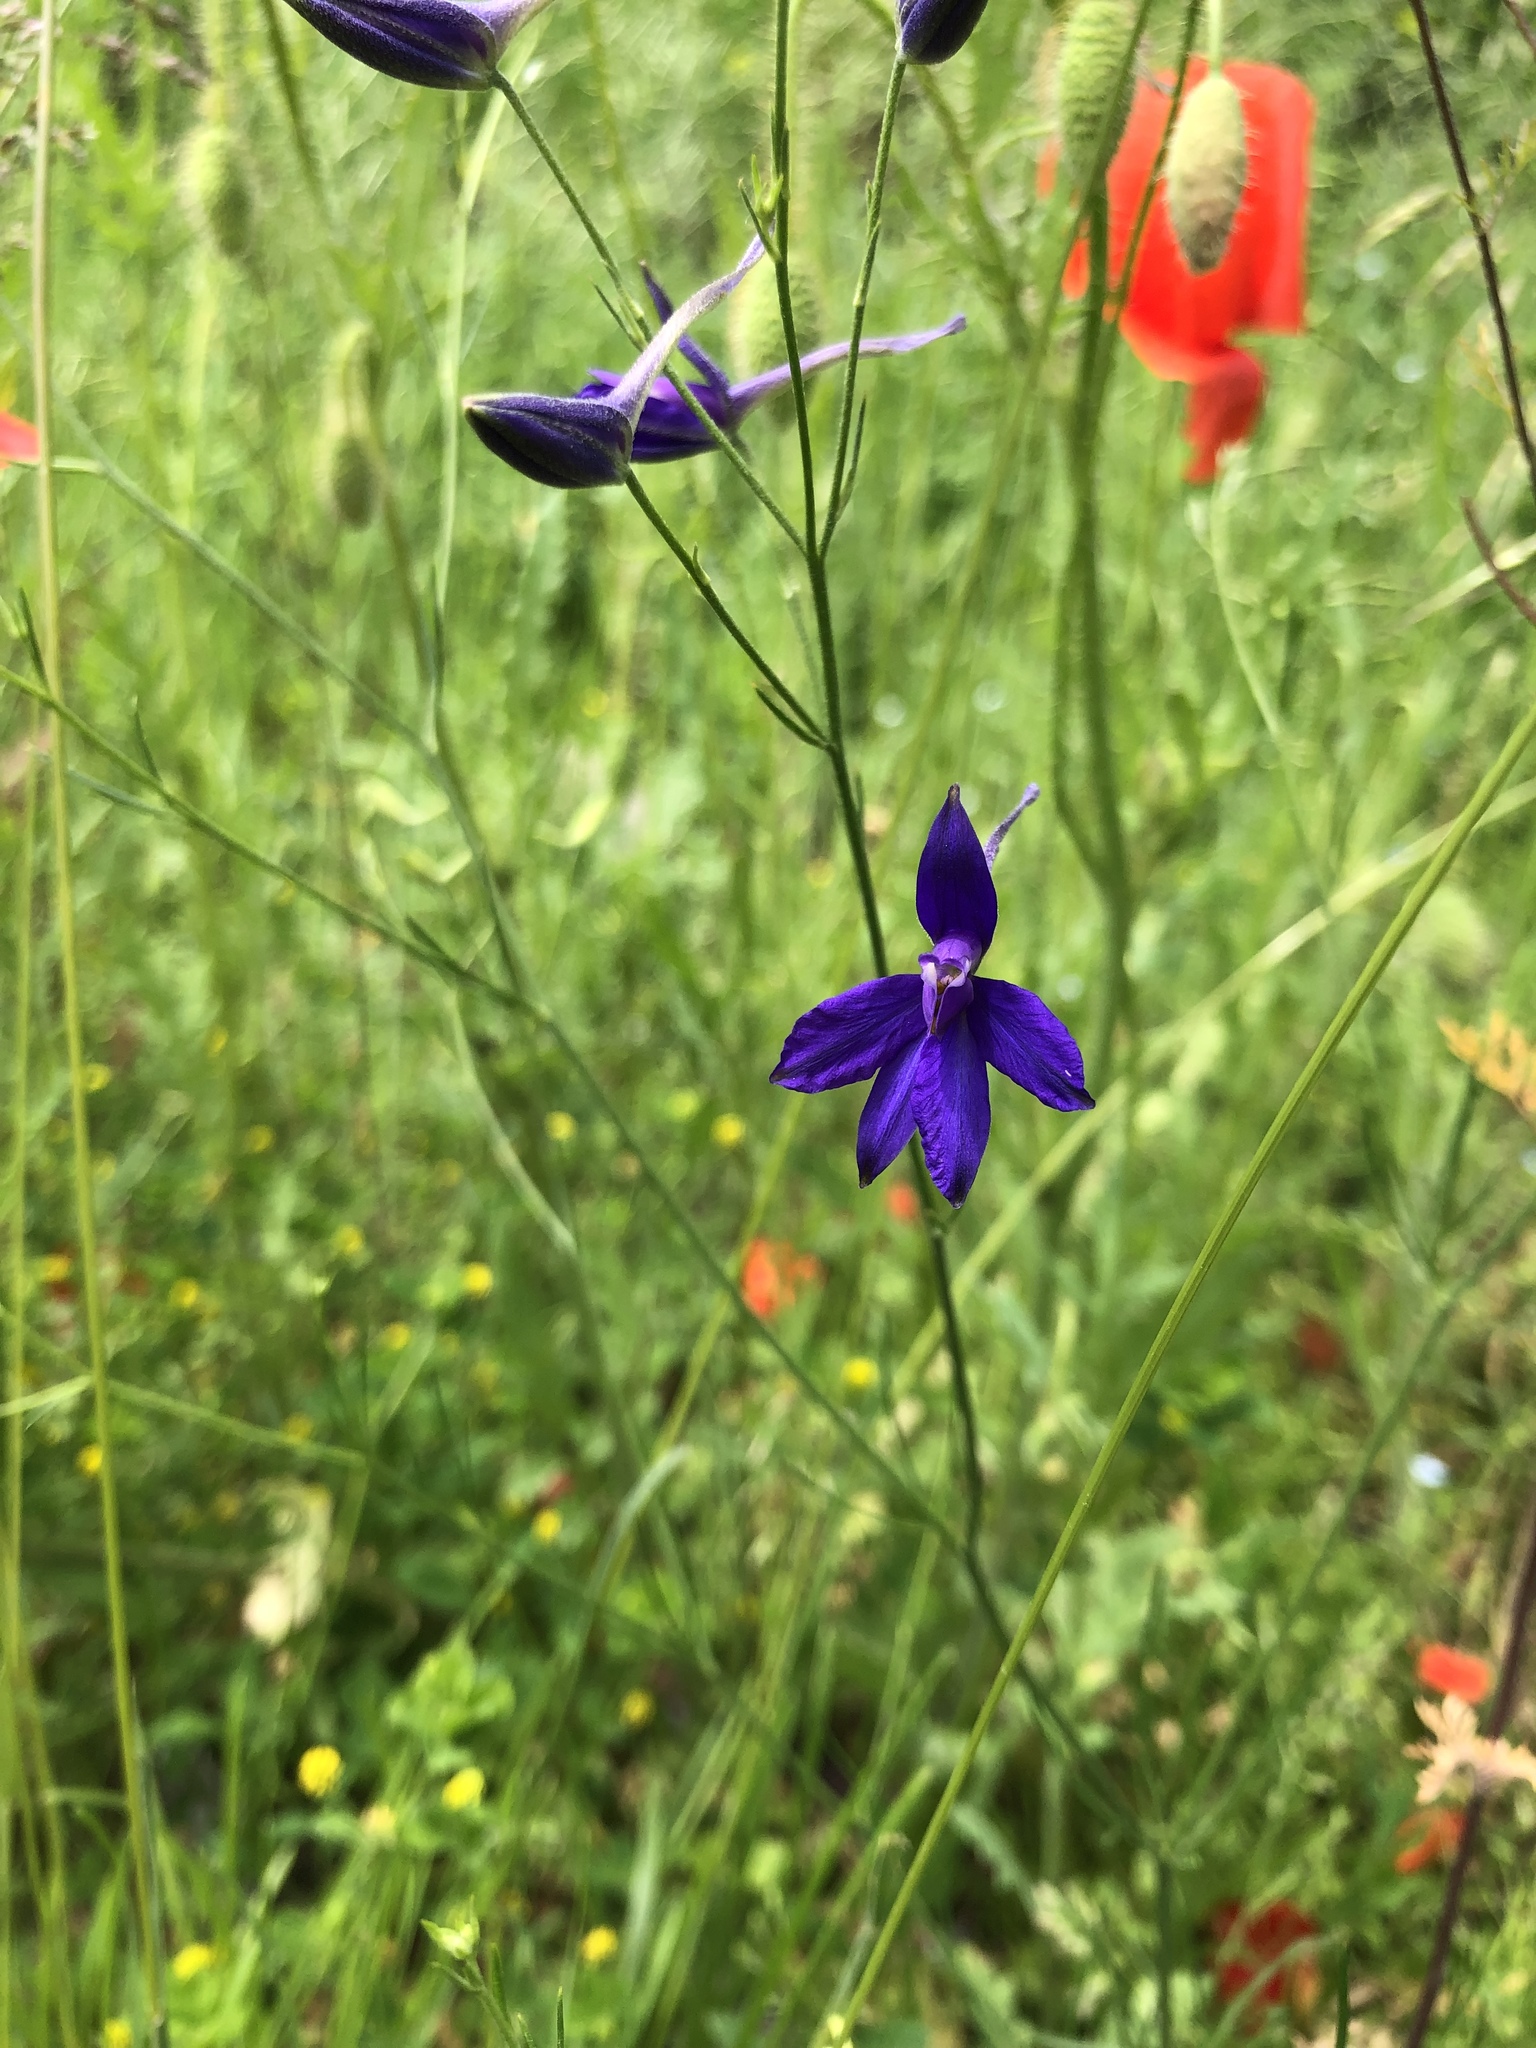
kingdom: Plantae
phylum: Tracheophyta
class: Magnoliopsida
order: Ranunculales
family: Ranunculaceae
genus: Delphinium
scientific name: Delphinium consolida
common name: Branching larkspur
